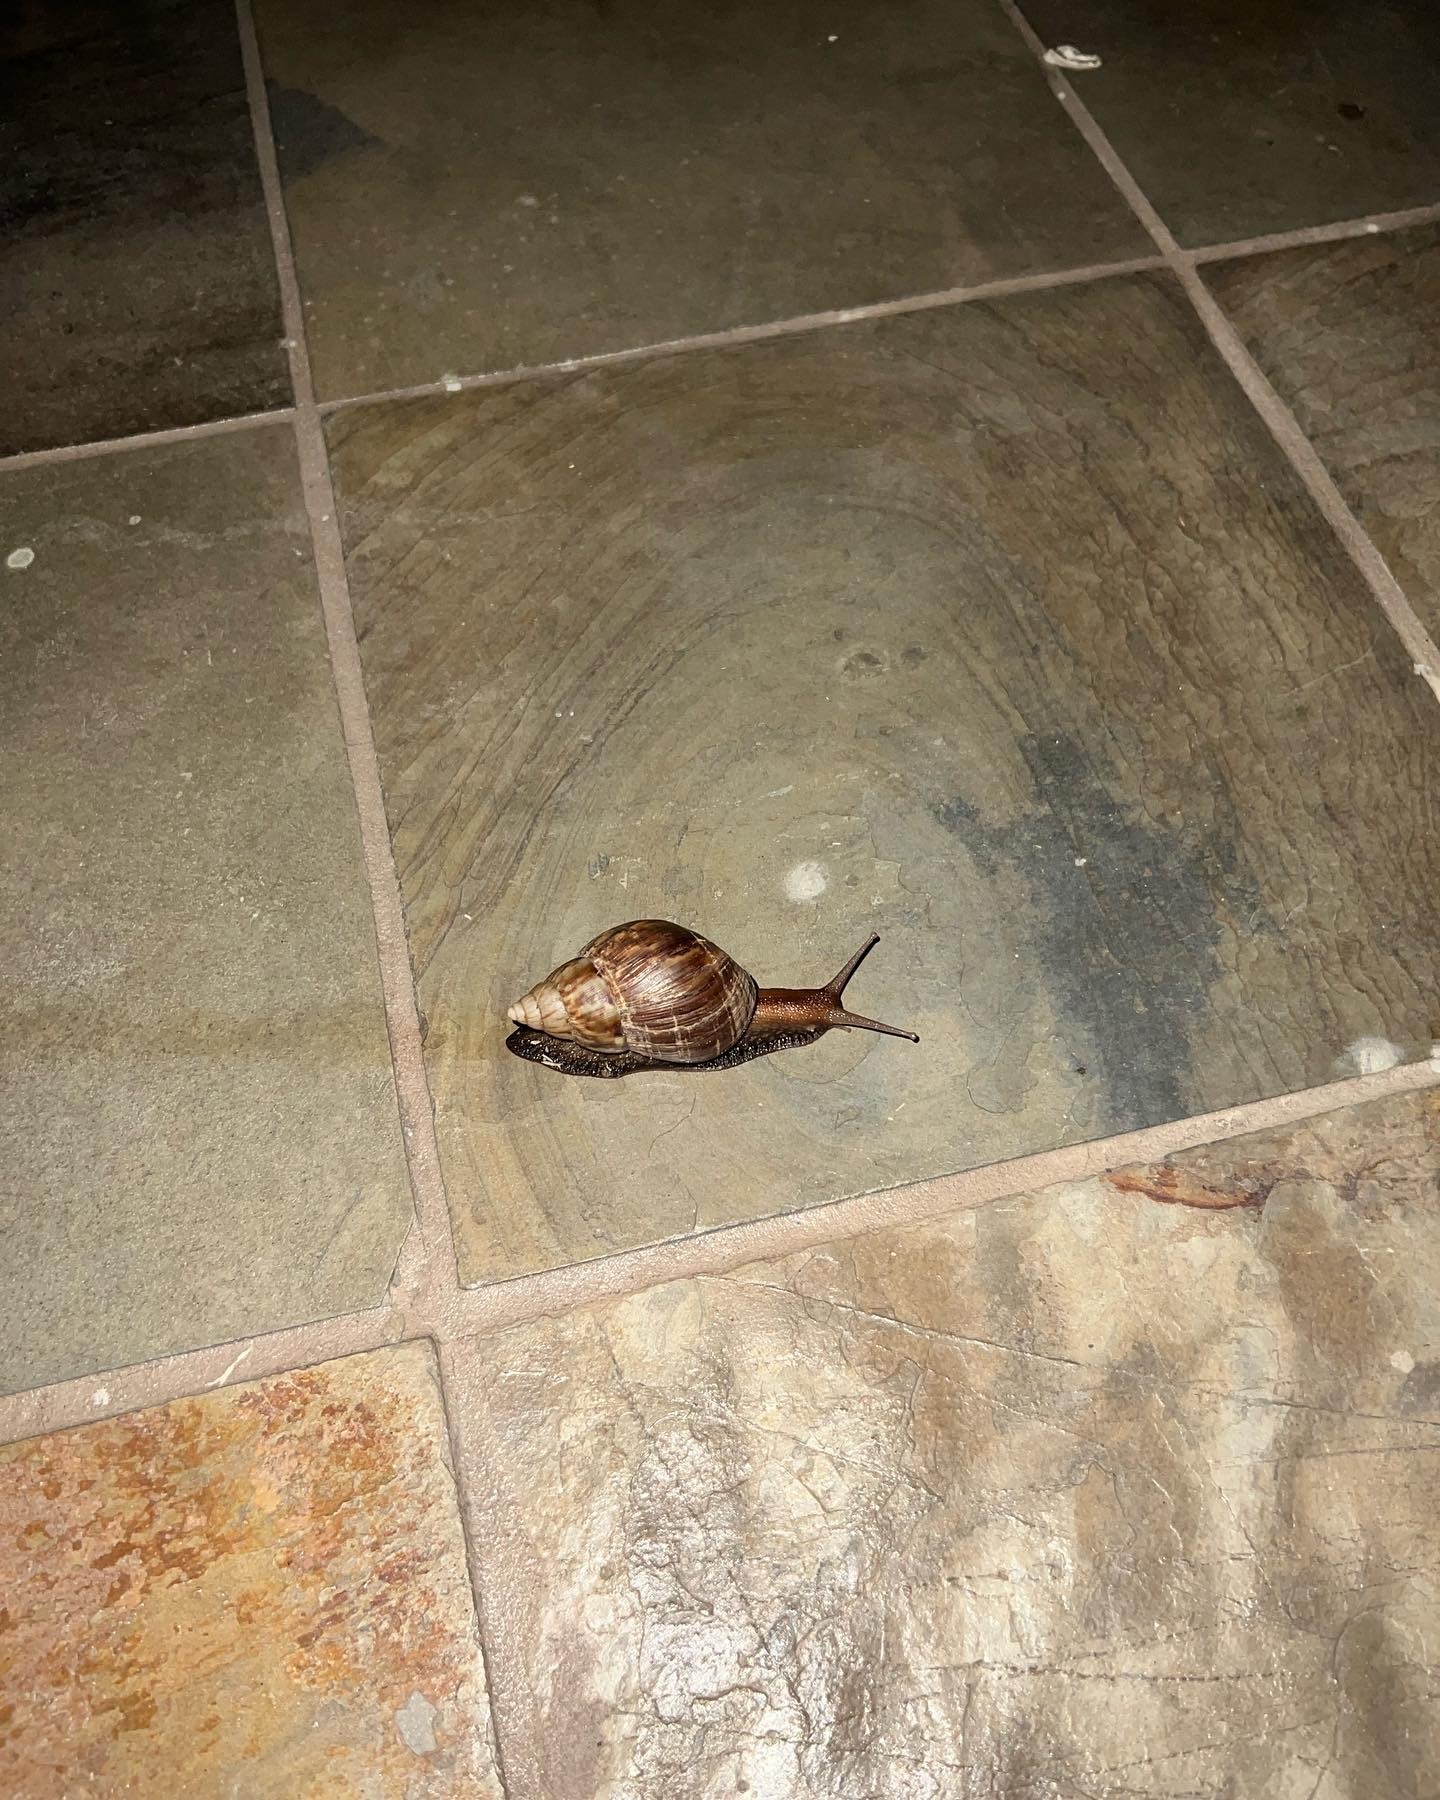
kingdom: Animalia
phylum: Mollusca
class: Gastropoda
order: Stylommatophora
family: Achatinidae
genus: Lissachatina
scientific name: Lissachatina fulica
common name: Giant african snail
